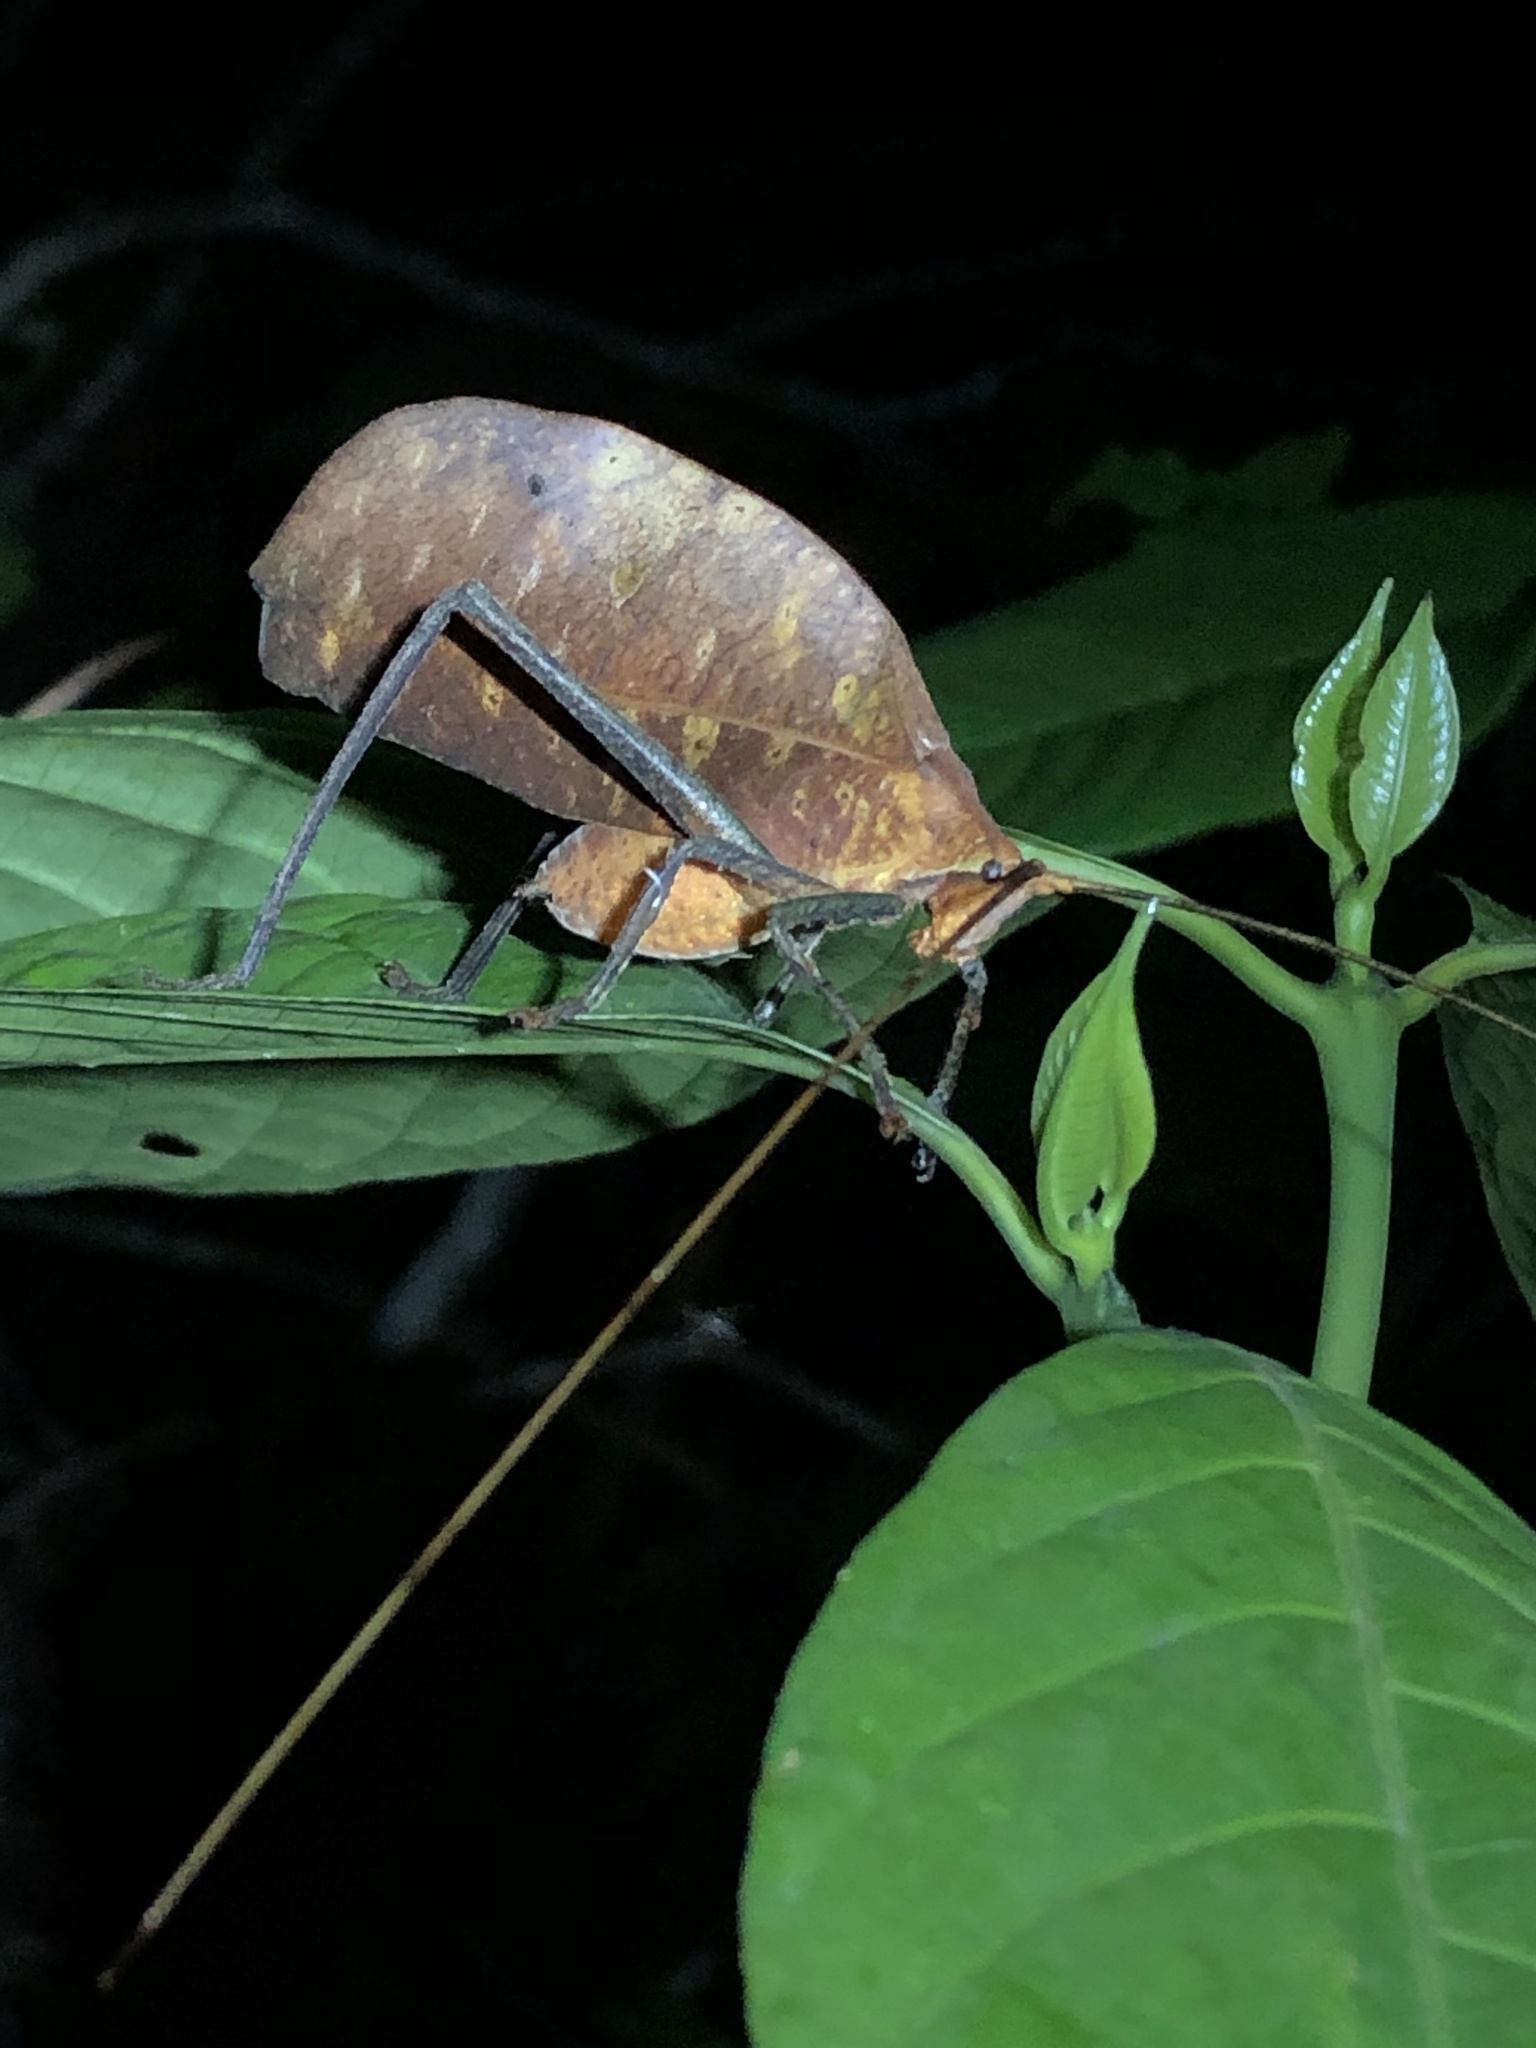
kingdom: Animalia
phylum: Arthropoda
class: Insecta
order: Orthoptera
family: Tettigoniidae
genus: Pterochroza
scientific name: Pterochroza ocellata
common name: Peacock katydid
